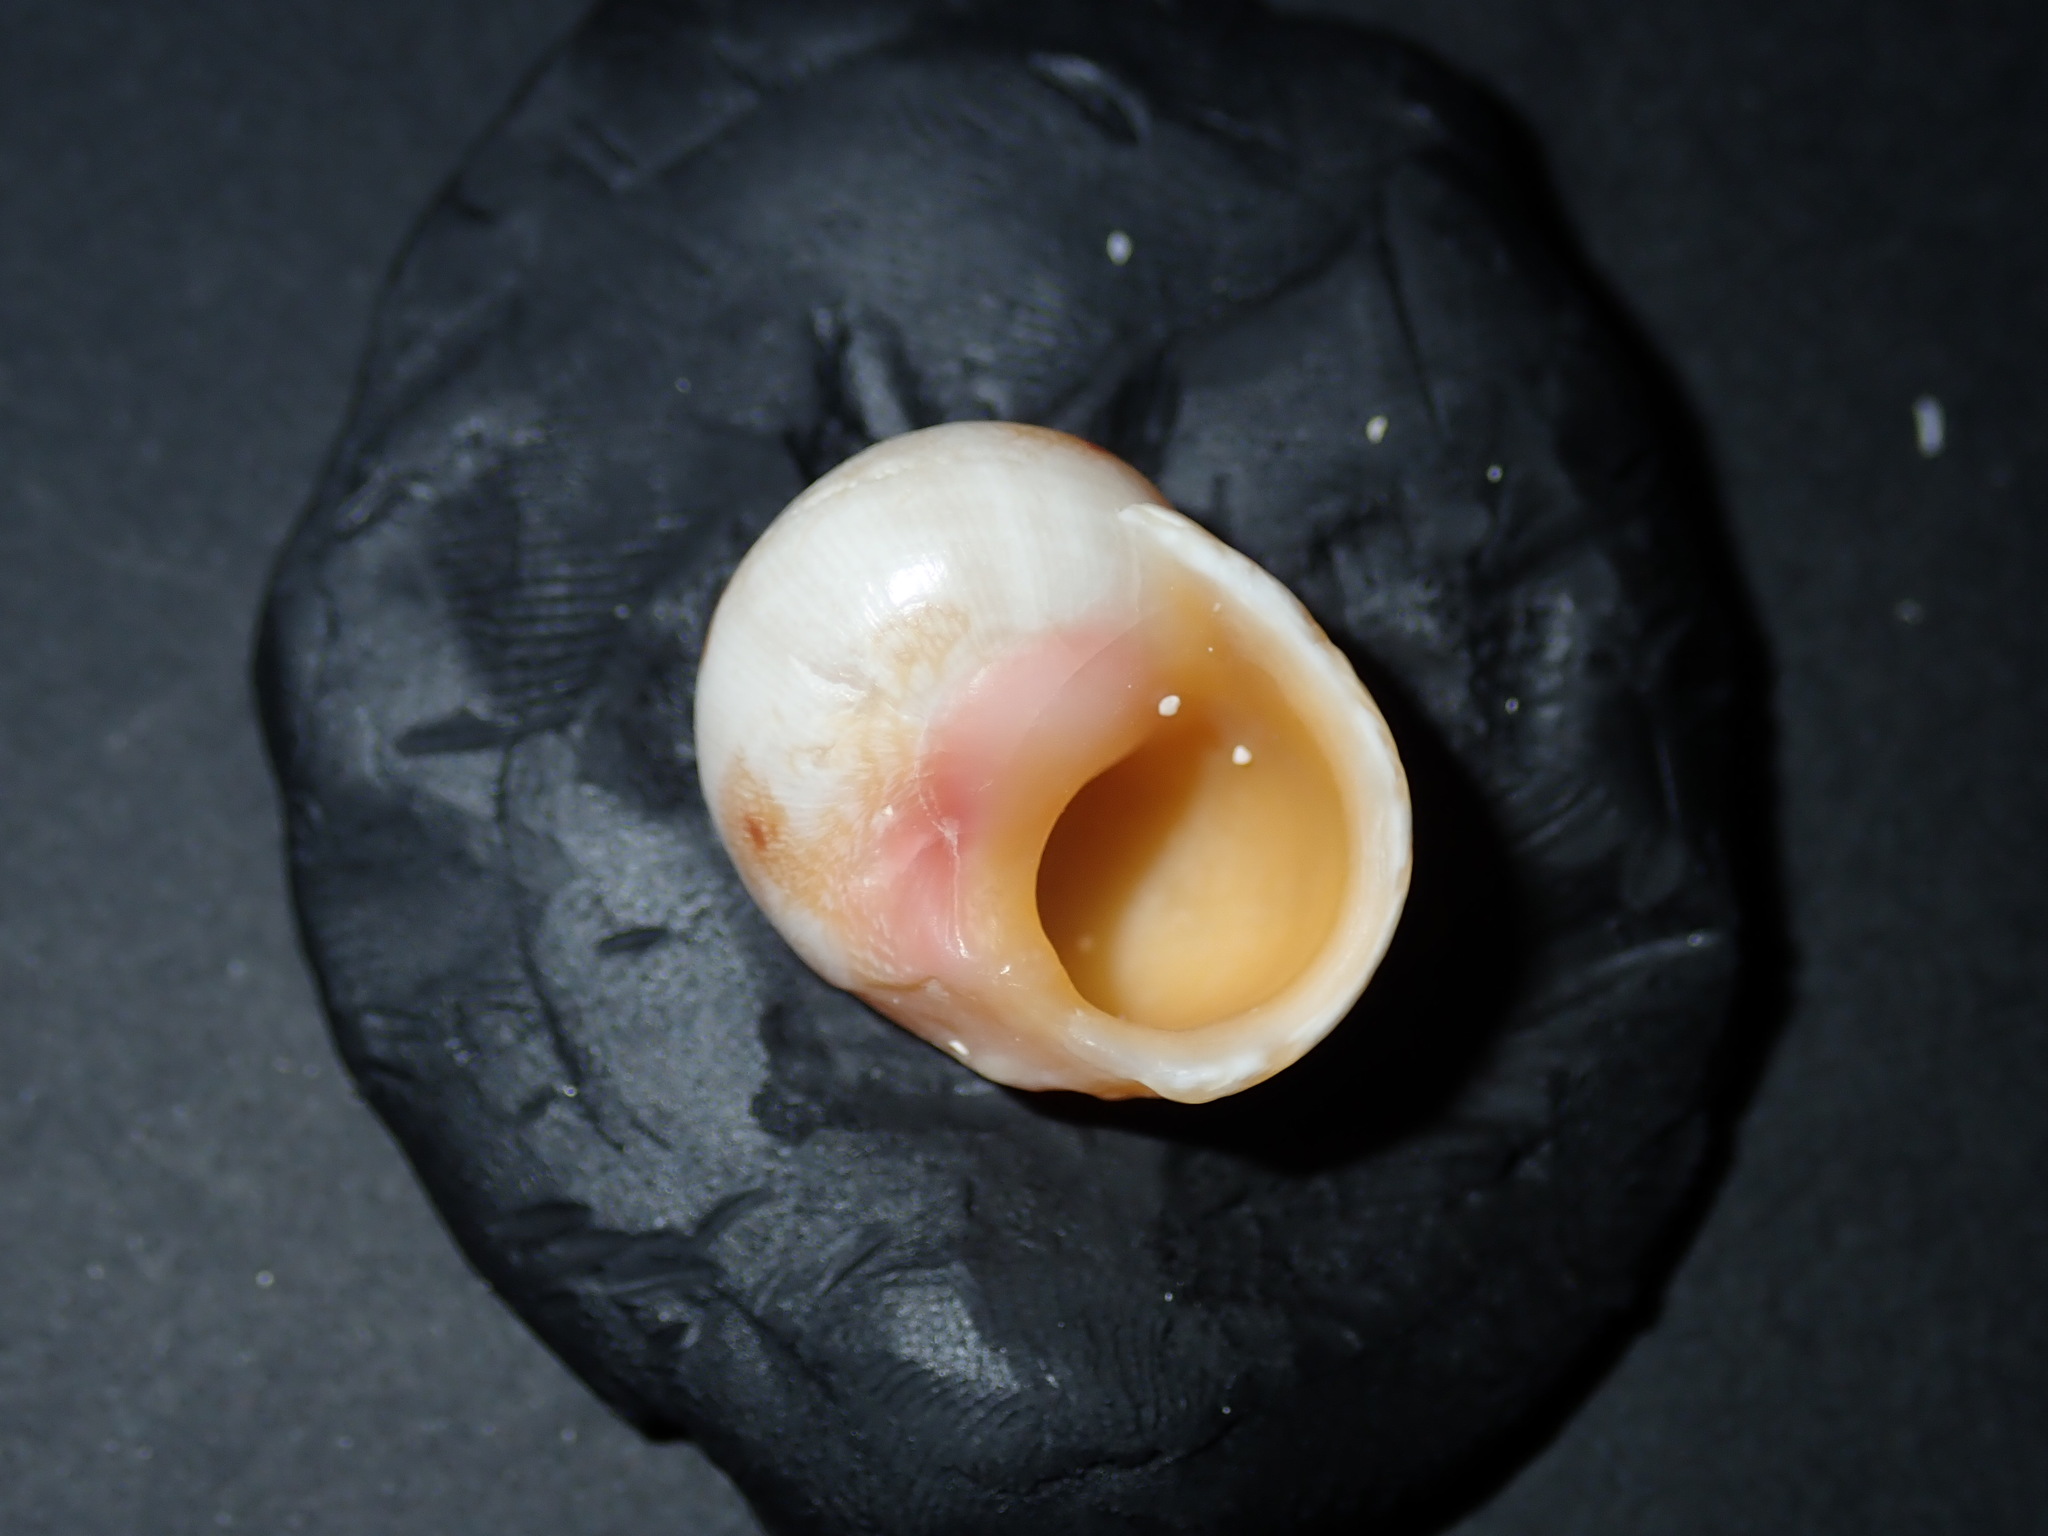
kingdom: Animalia
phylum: Mollusca
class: Gastropoda
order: Trochida
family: Trochidae
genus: Chrysostoma
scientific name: Chrysostoma paradoxum
